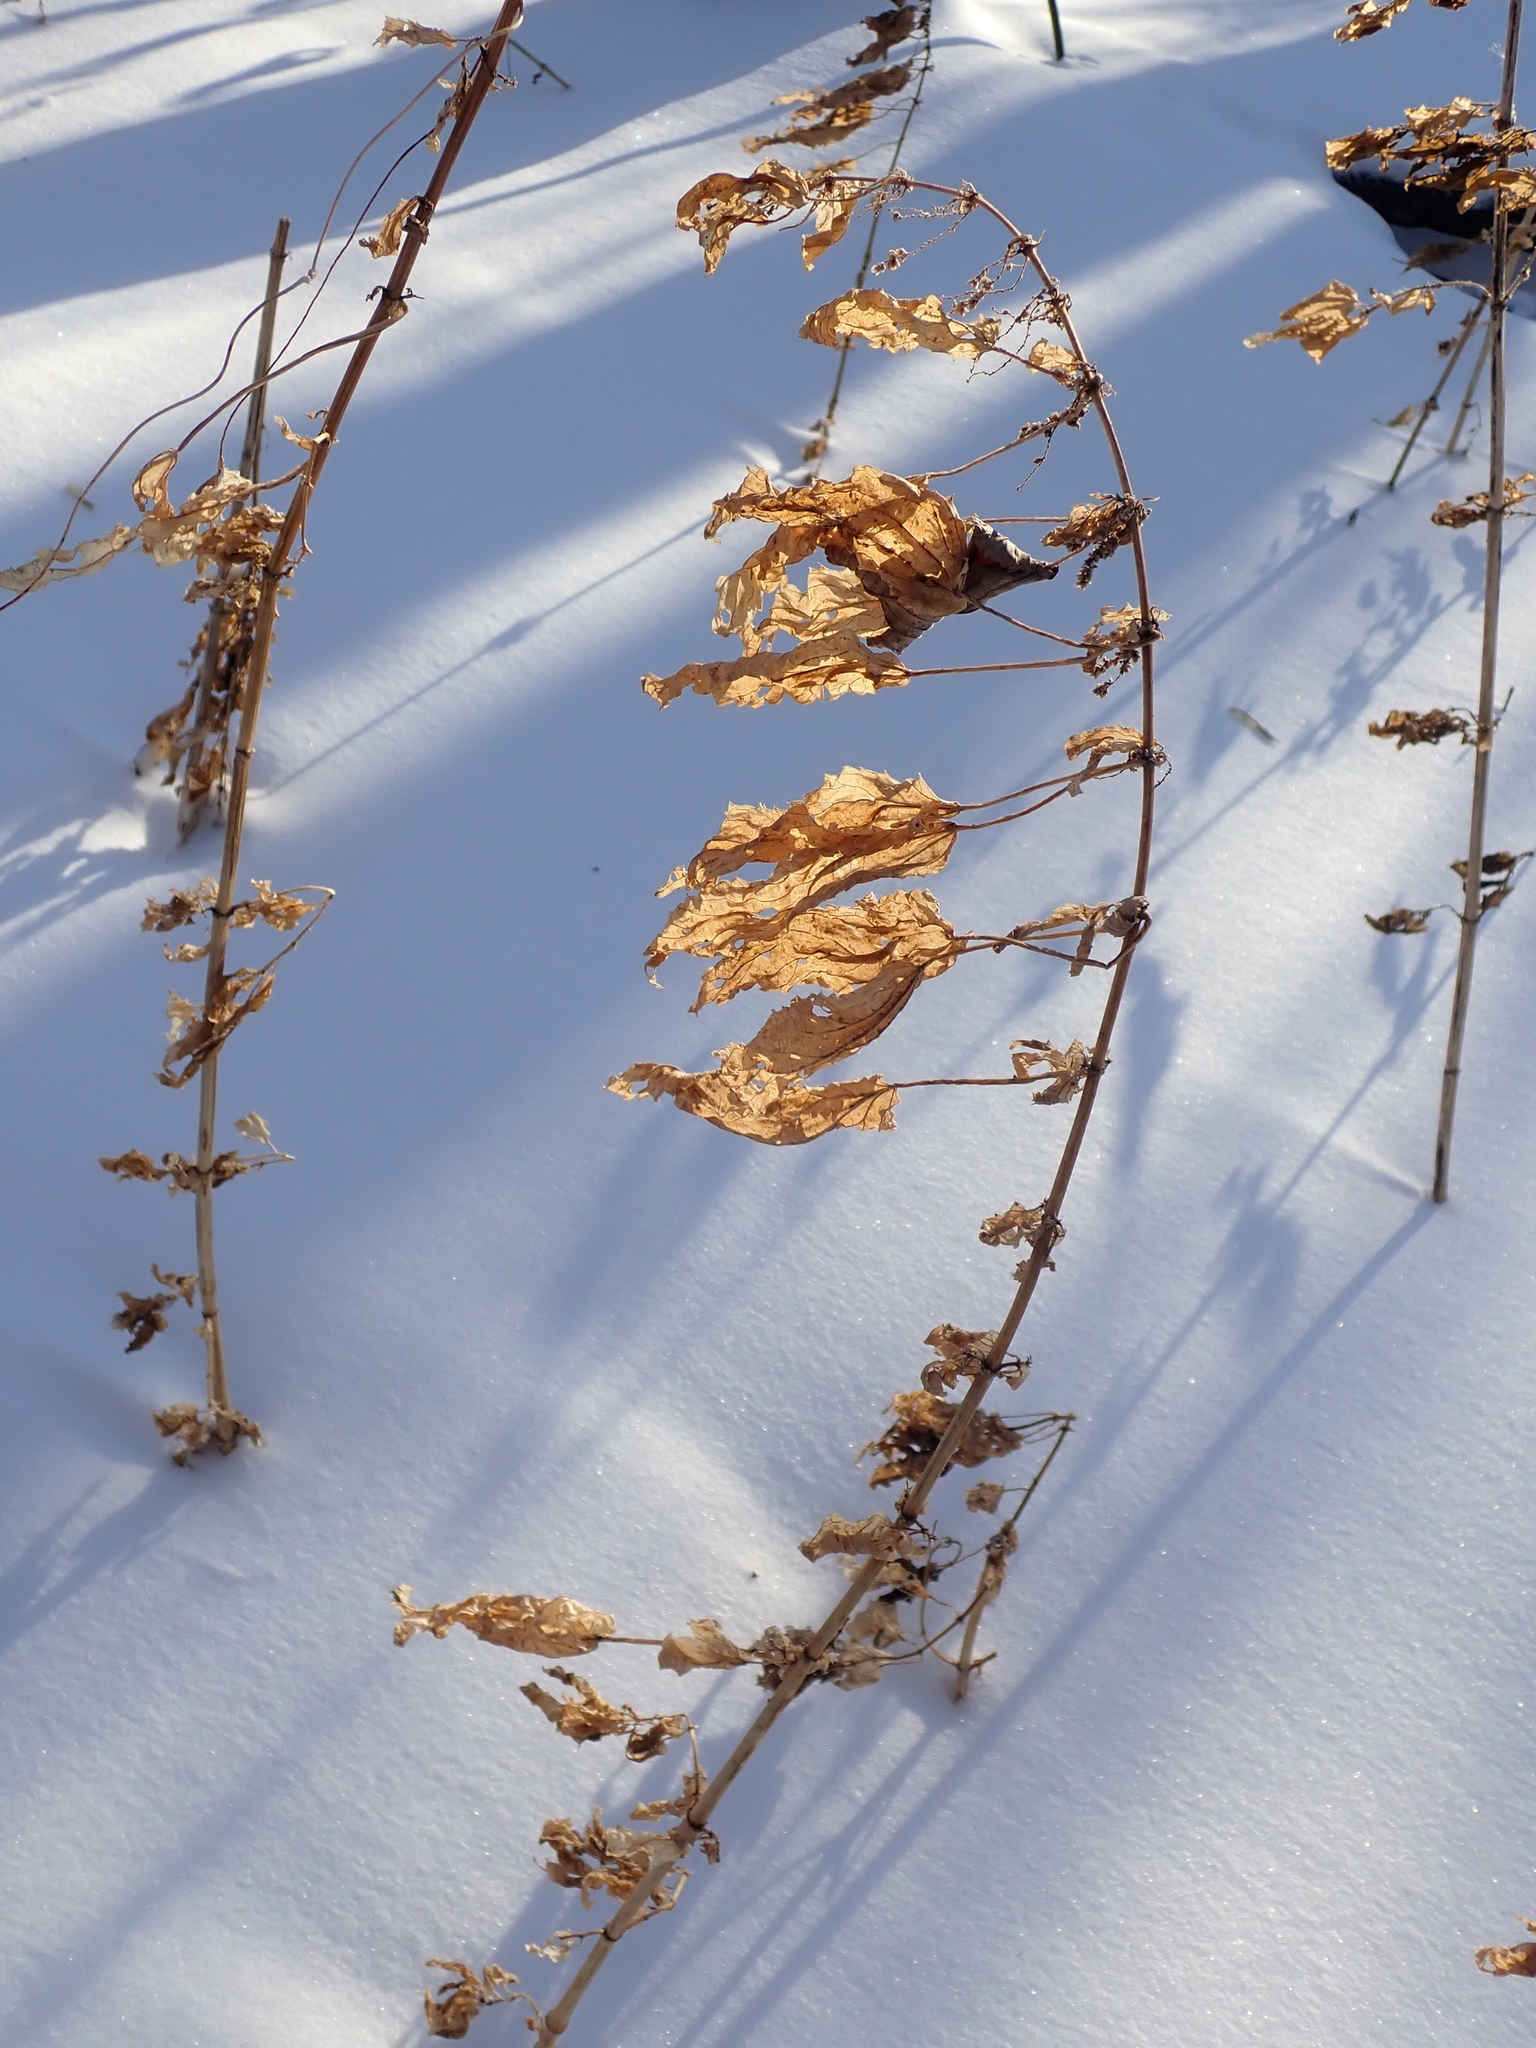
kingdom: Plantae
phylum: Tracheophyta
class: Magnoliopsida
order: Rosales
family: Urticaceae
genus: Urtica
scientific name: Urtica gracilis
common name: Slender stinging nettle
